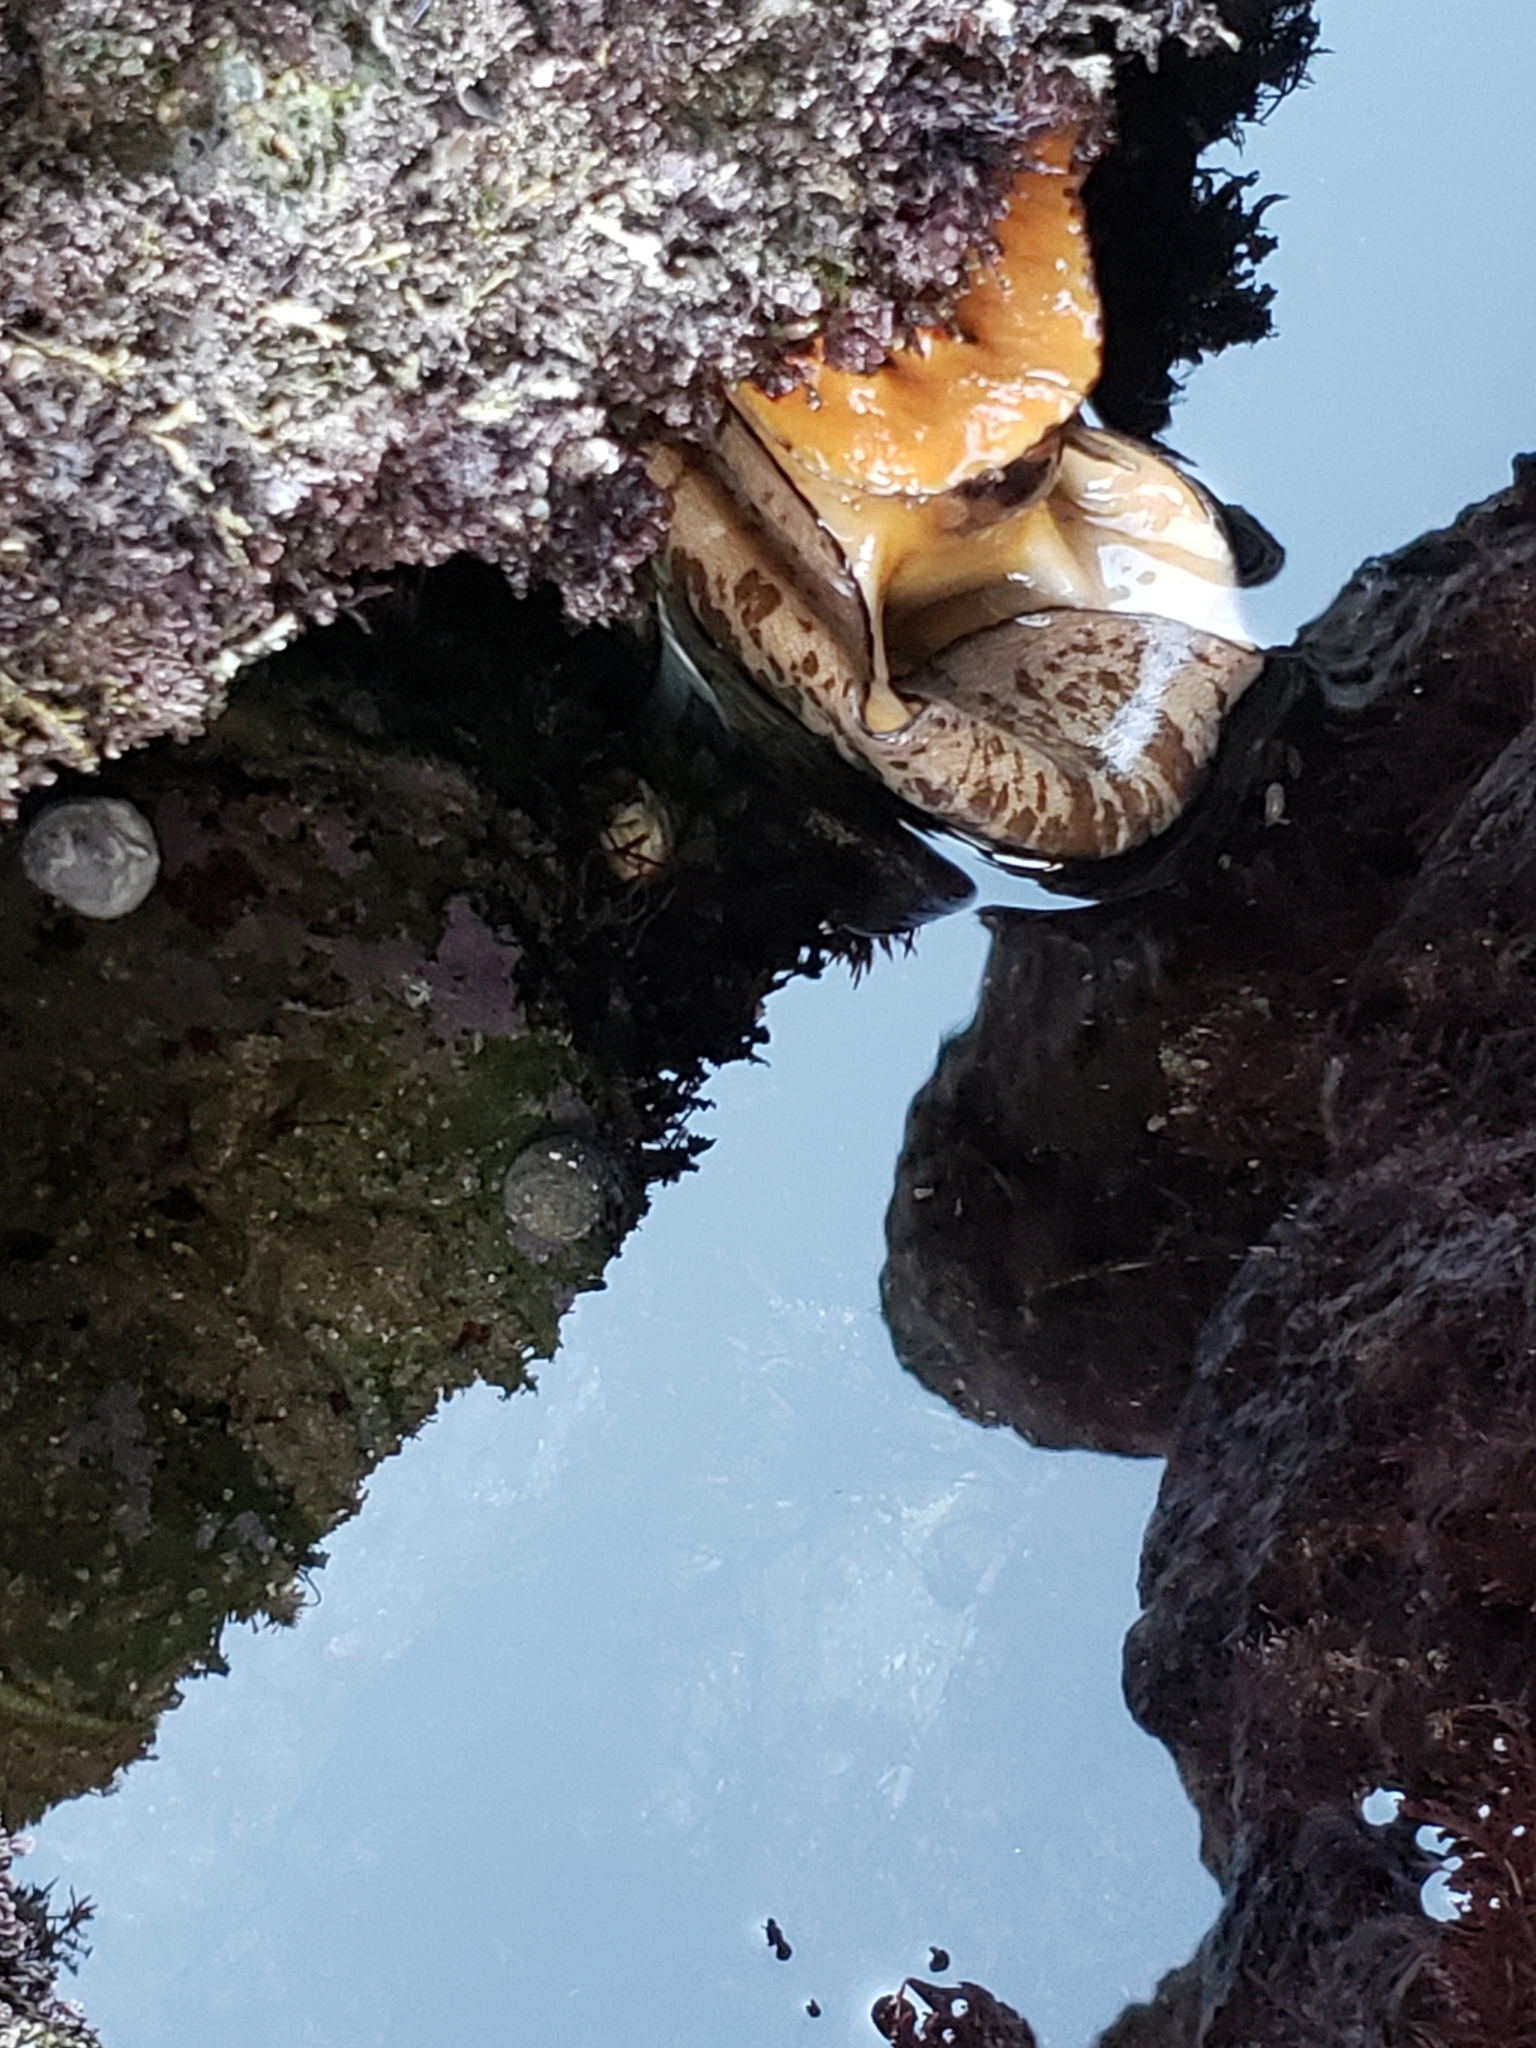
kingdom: Animalia
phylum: Mollusca
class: Gastropoda
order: Lepetellida
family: Fissurellidae
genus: Megathura
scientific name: Megathura crenulata
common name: Giant keyhole limpet
